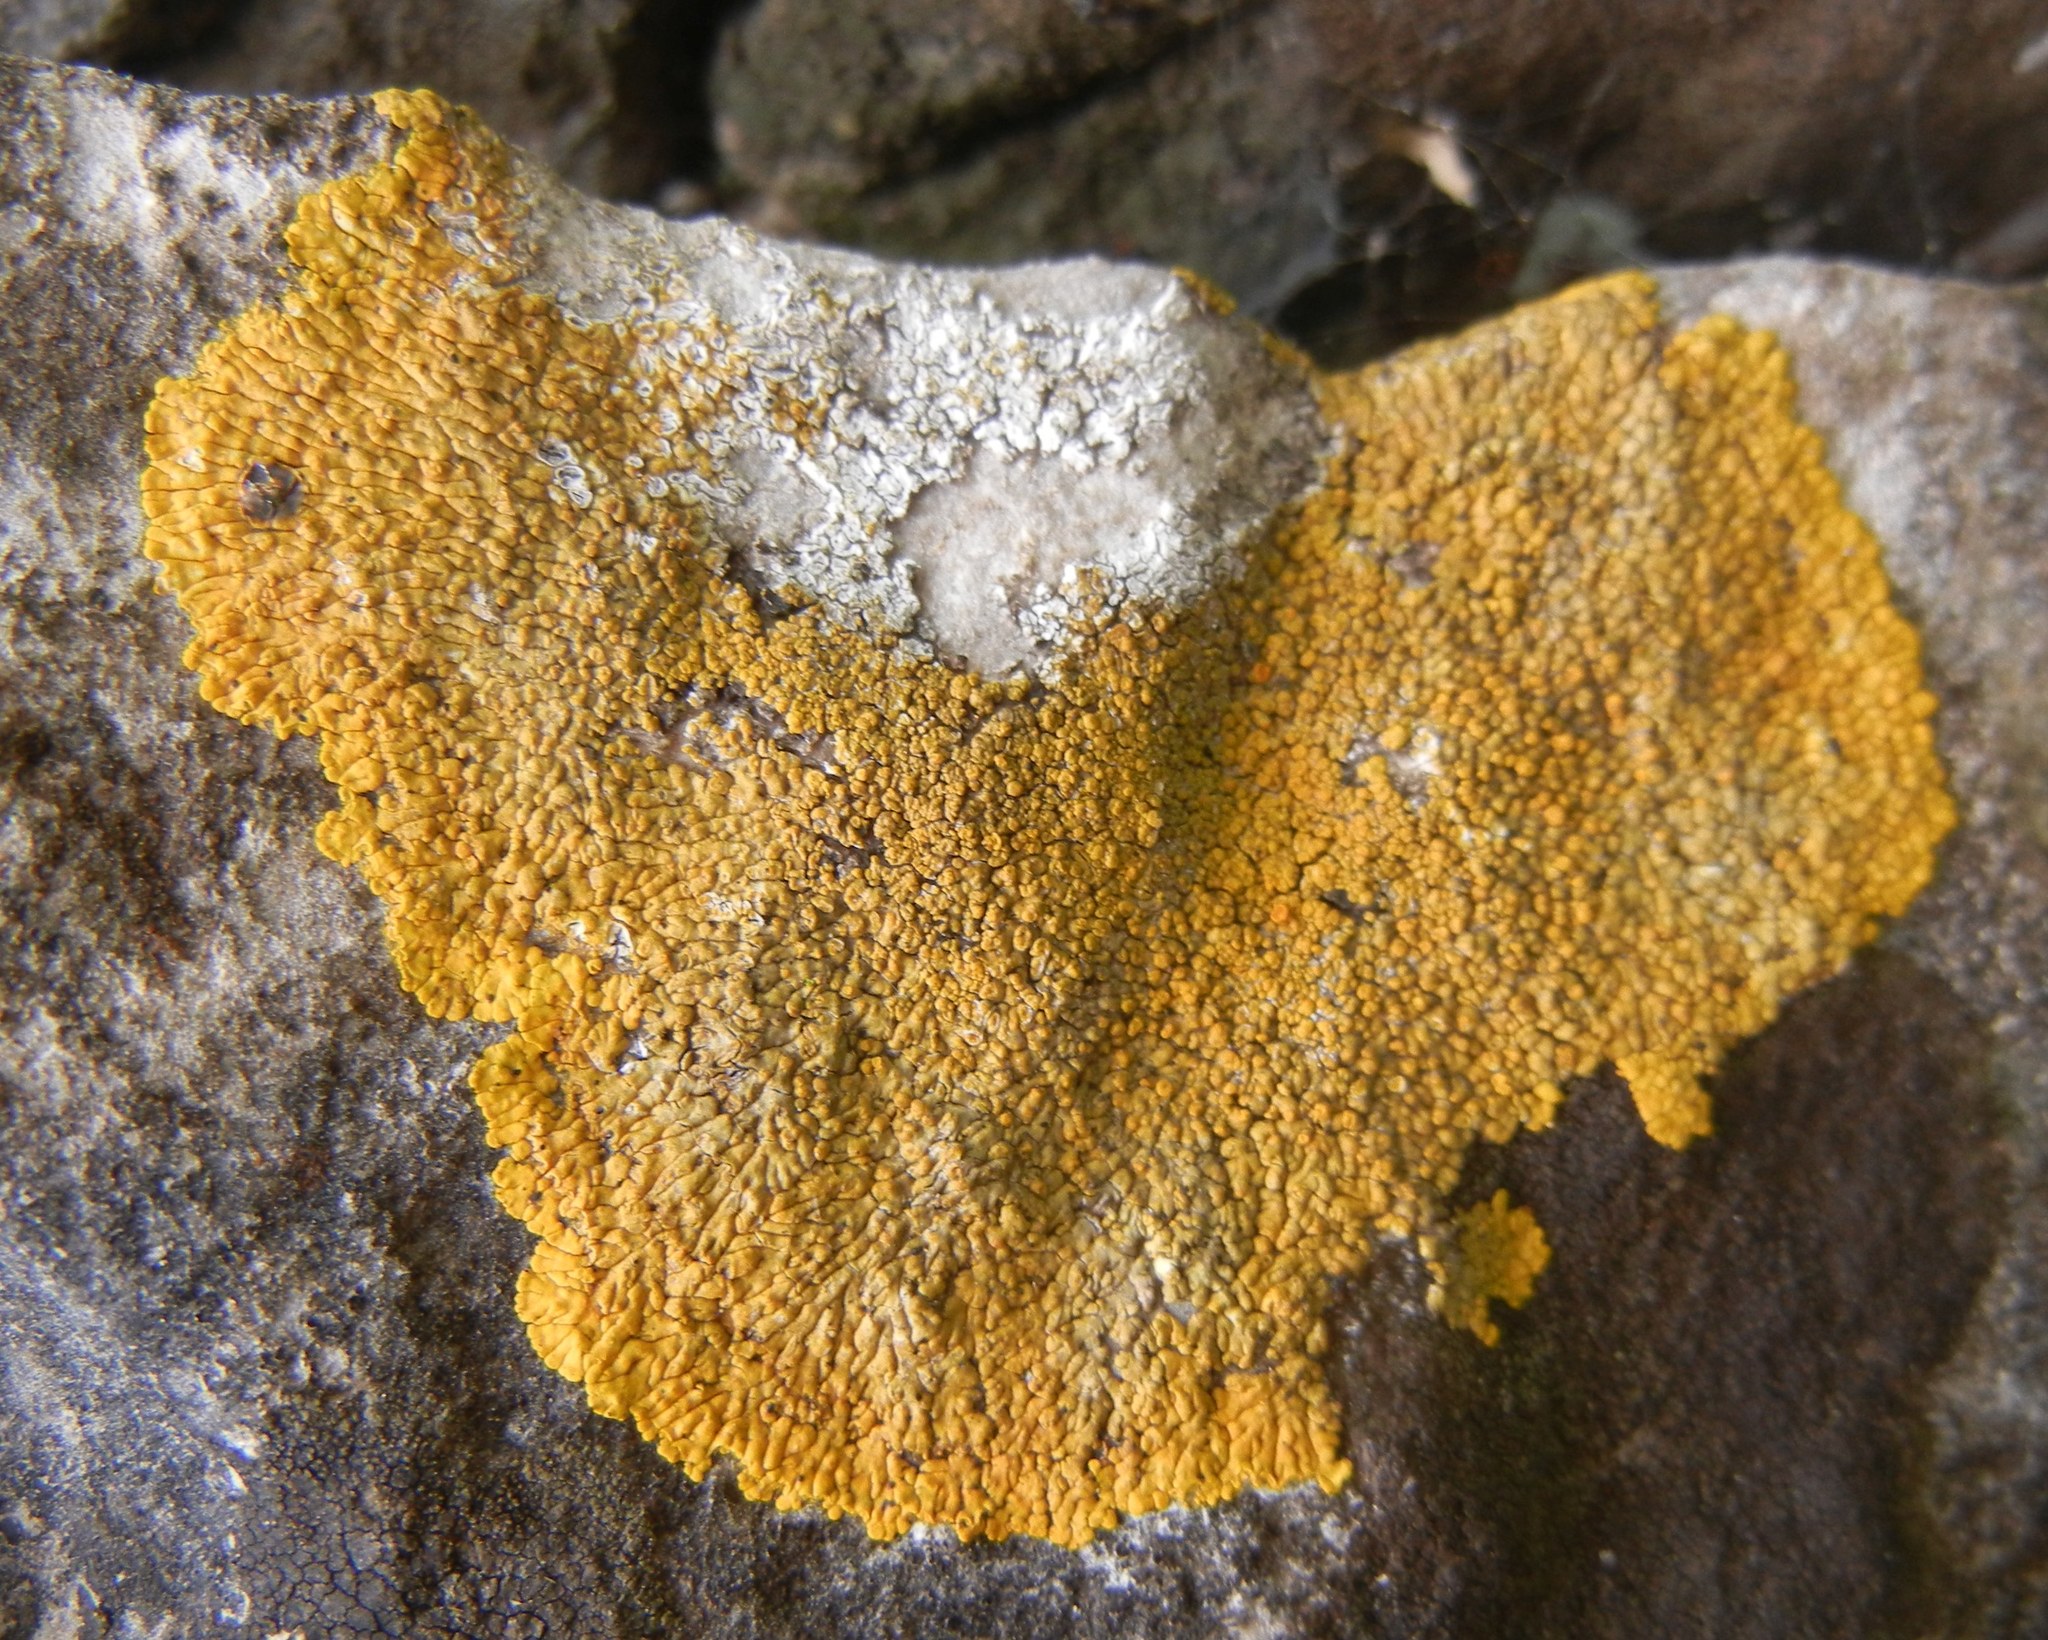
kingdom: Fungi
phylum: Ascomycota
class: Lecanoromycetes
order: Teloschistales
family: Teloschistaceae
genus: Variospora
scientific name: Variospora flavescens
